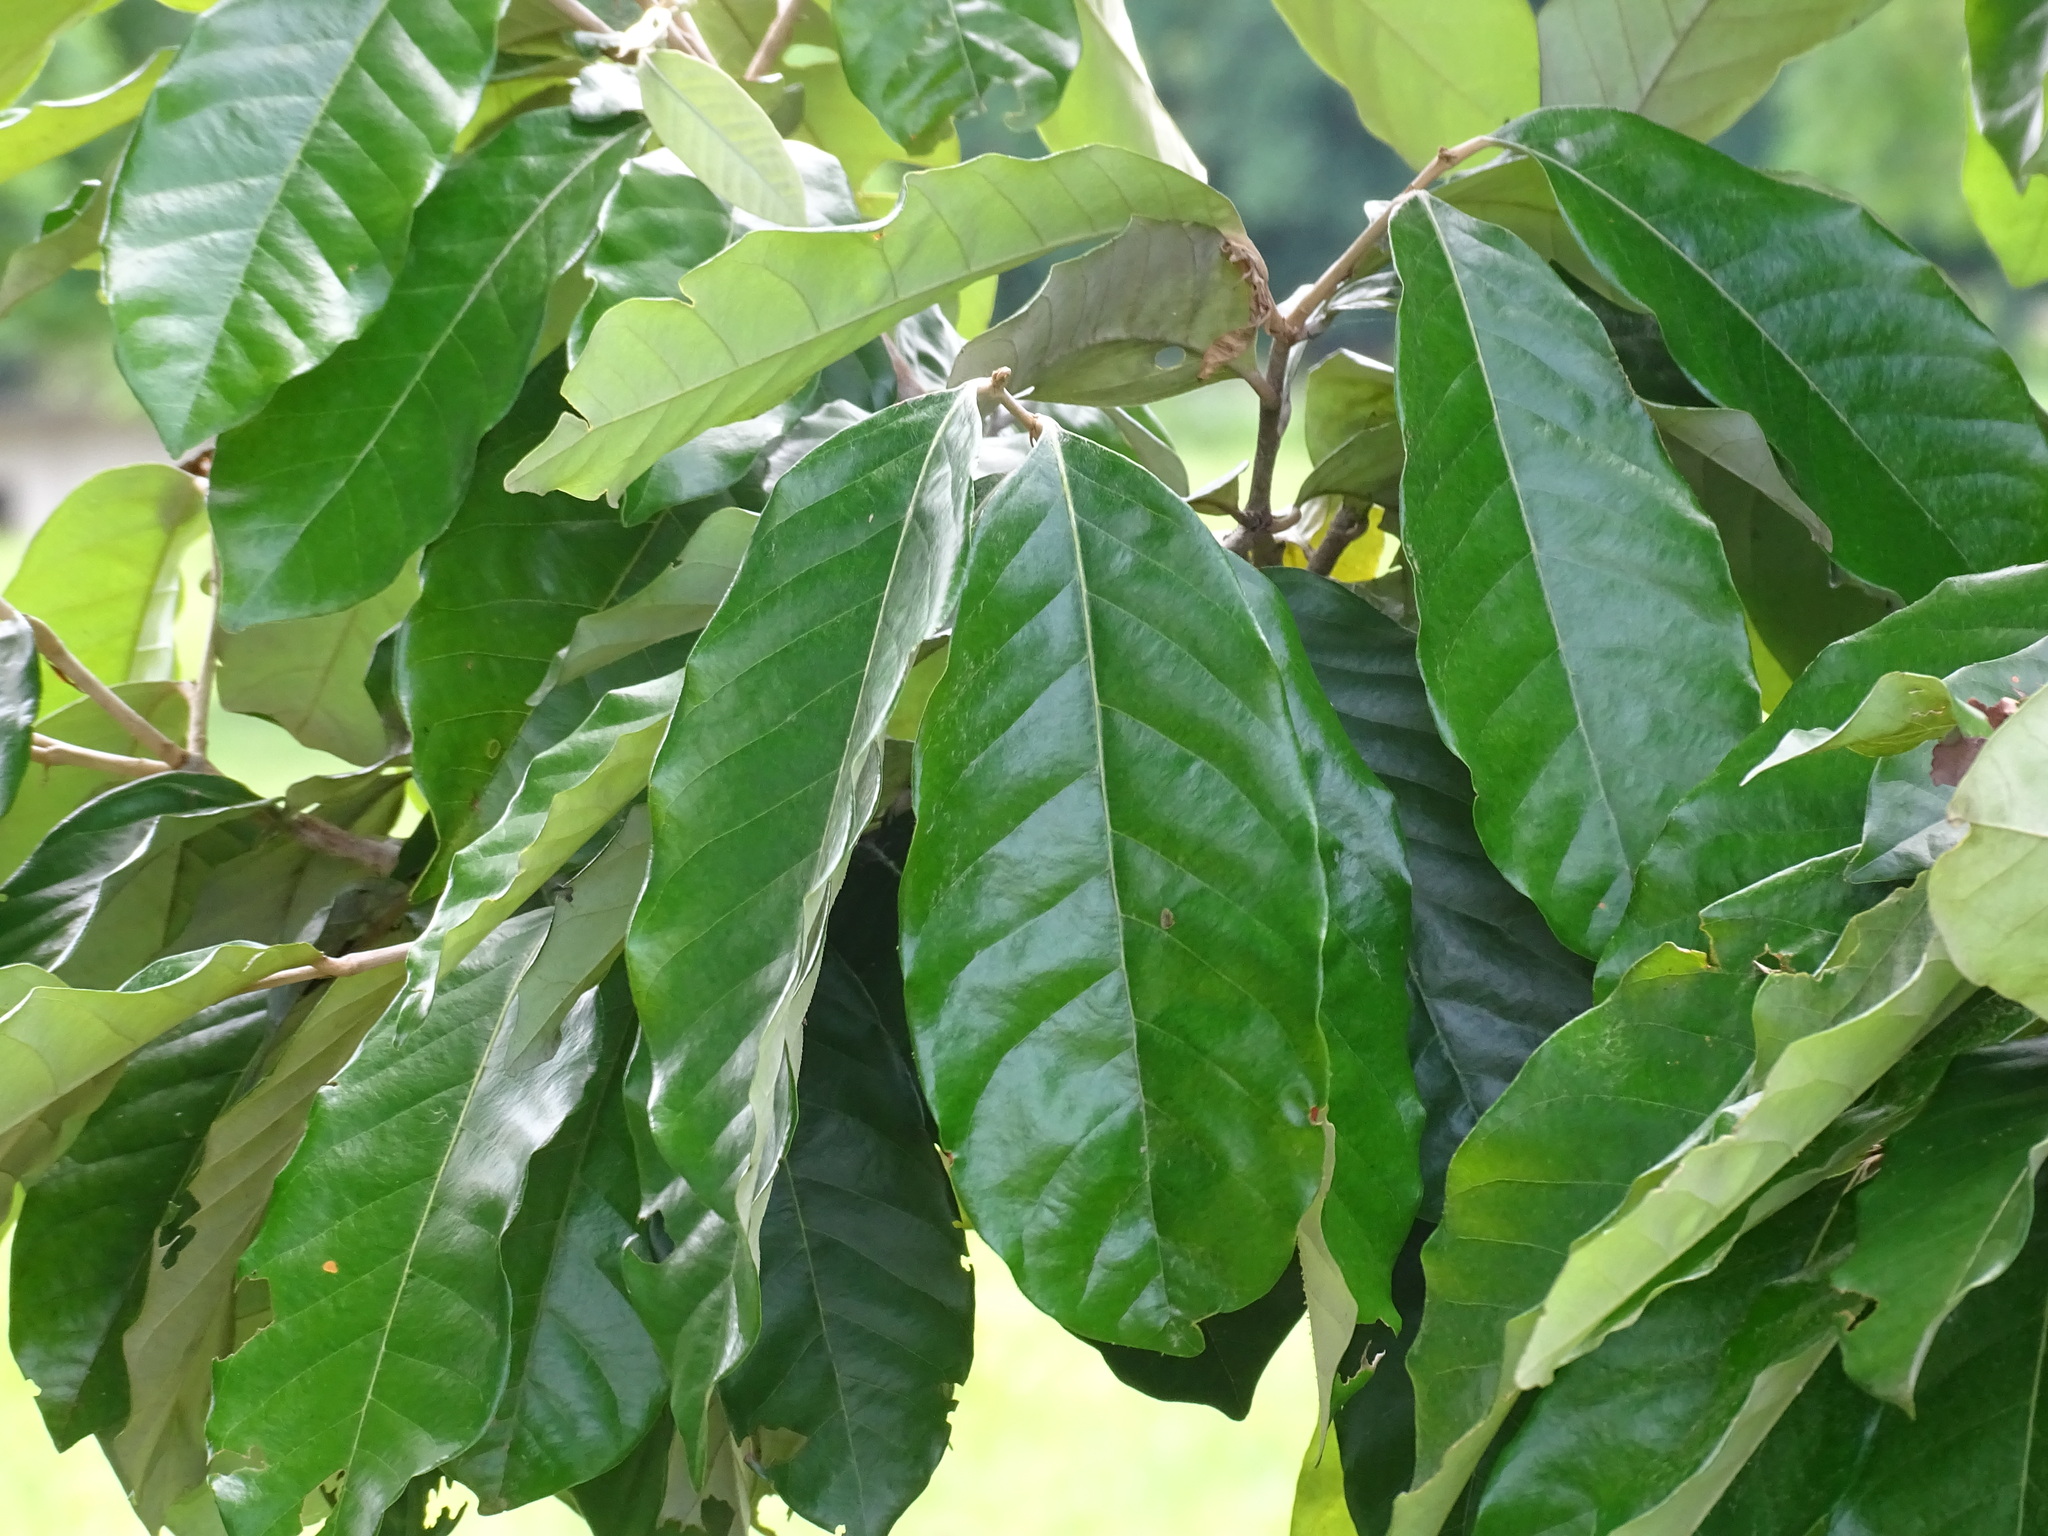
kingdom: Plantae
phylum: Tracheophyta
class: Magnoliopsida
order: Malpighiales
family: Chrysobalanaceae
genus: Couepia
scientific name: Couepia polyandra
